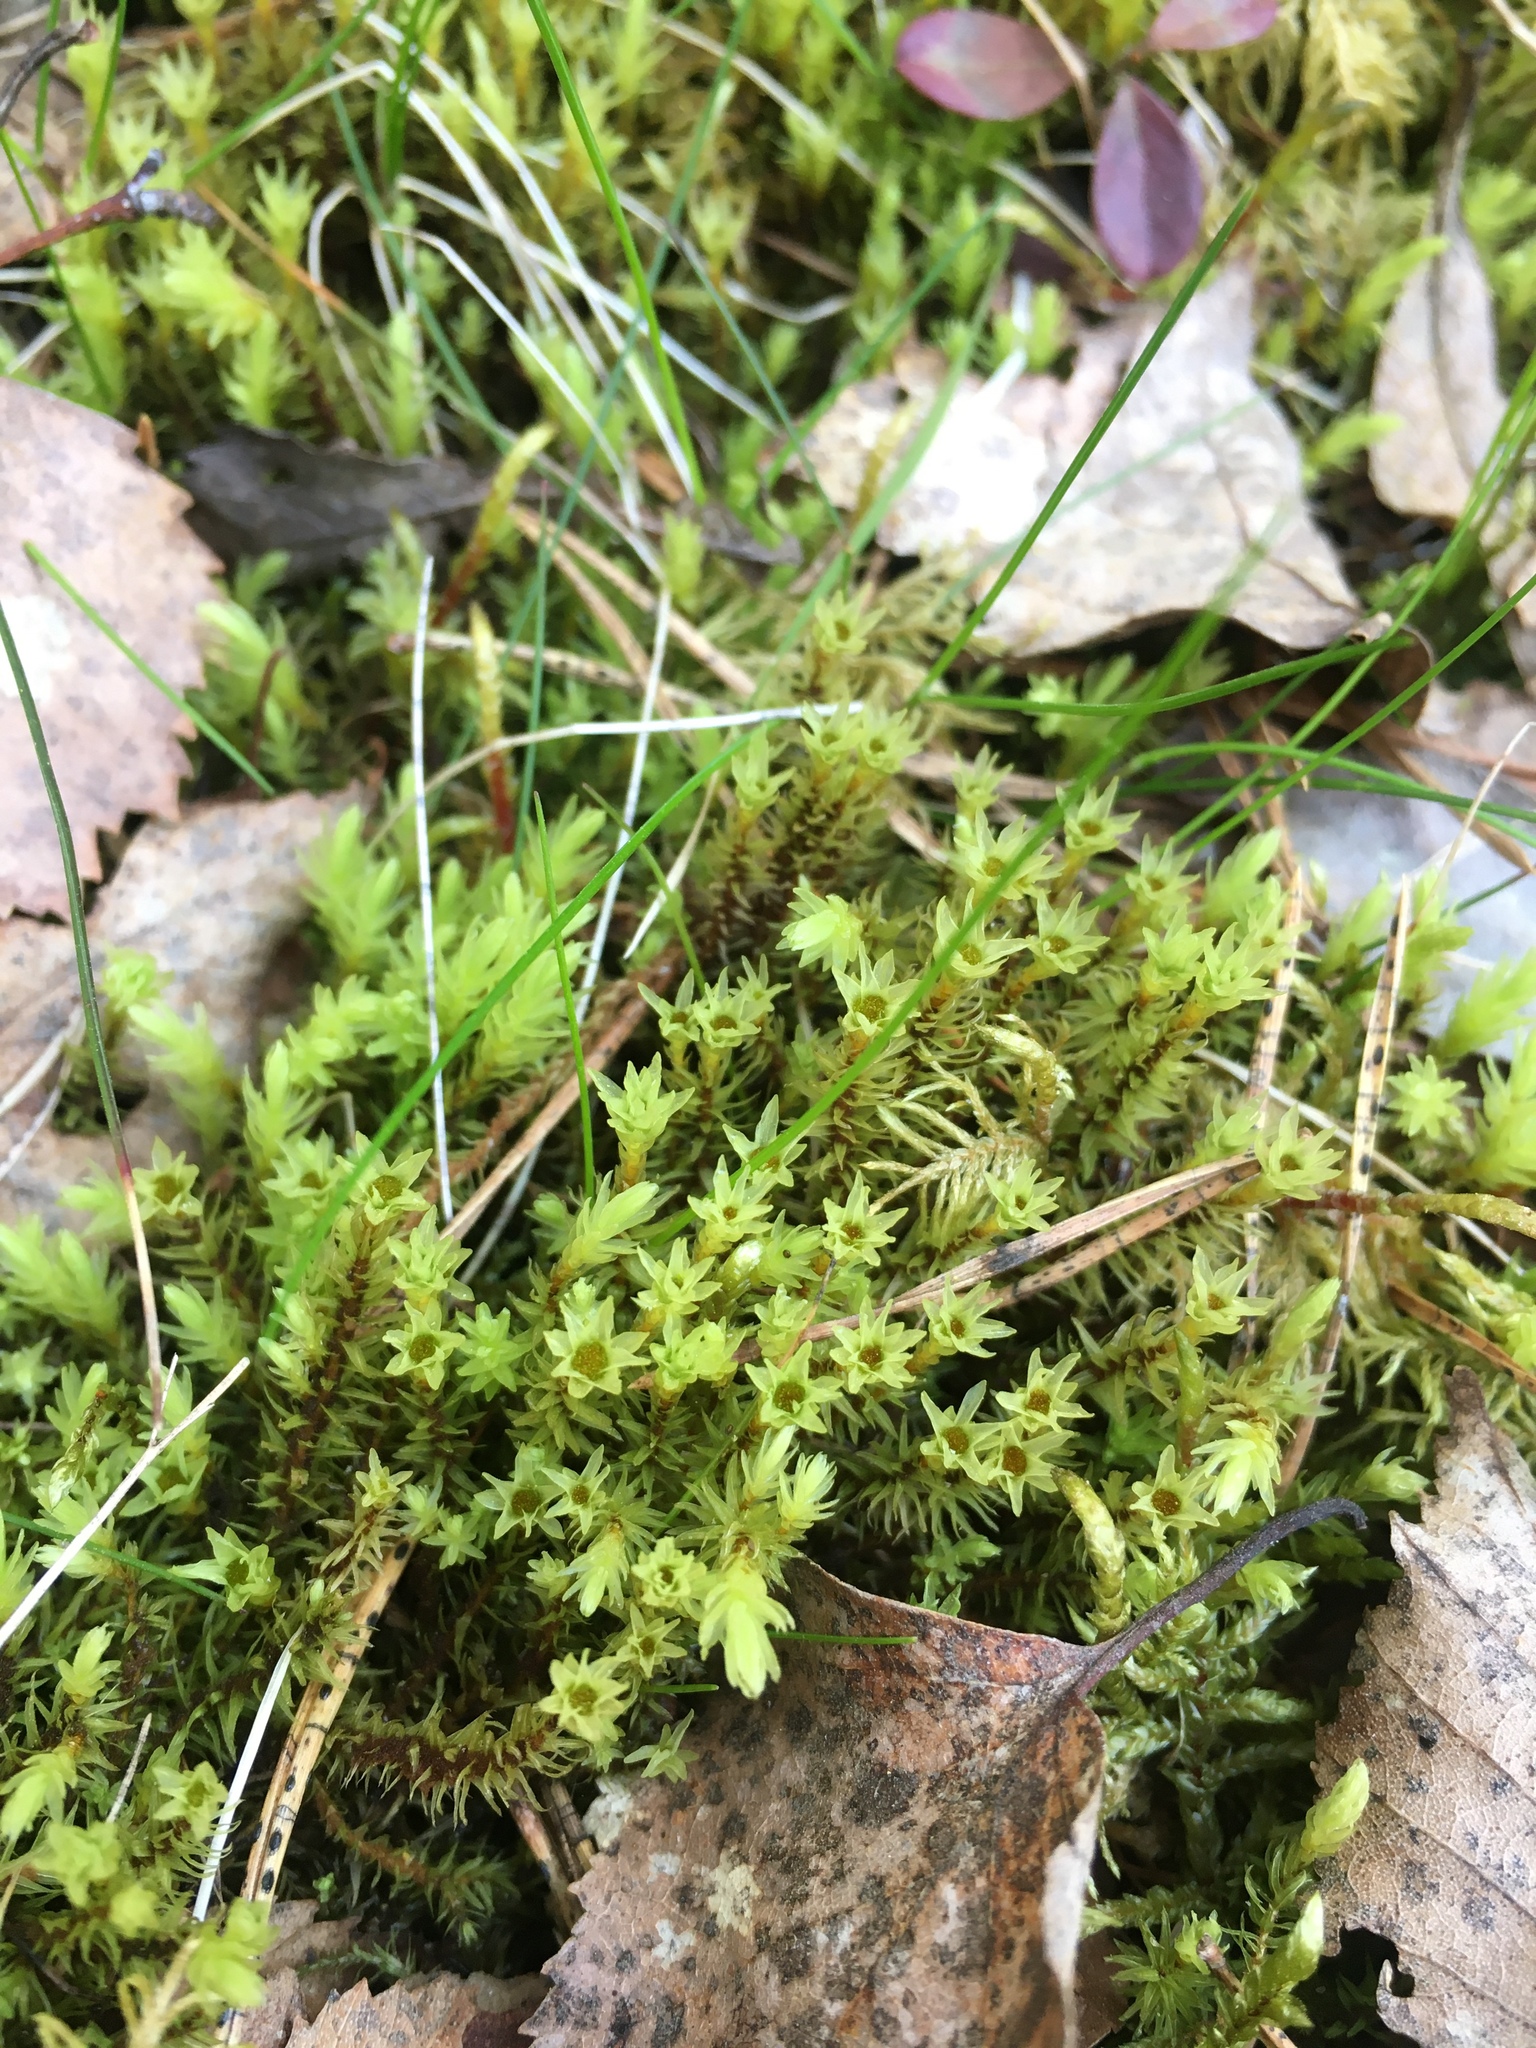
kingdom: Plantae
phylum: Bryophyta
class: Bryopsida
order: Aulacomniales
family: Aulacomniaceae
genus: Aulacomnium
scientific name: Aulacomnium palustre
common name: Bog groove-moss
